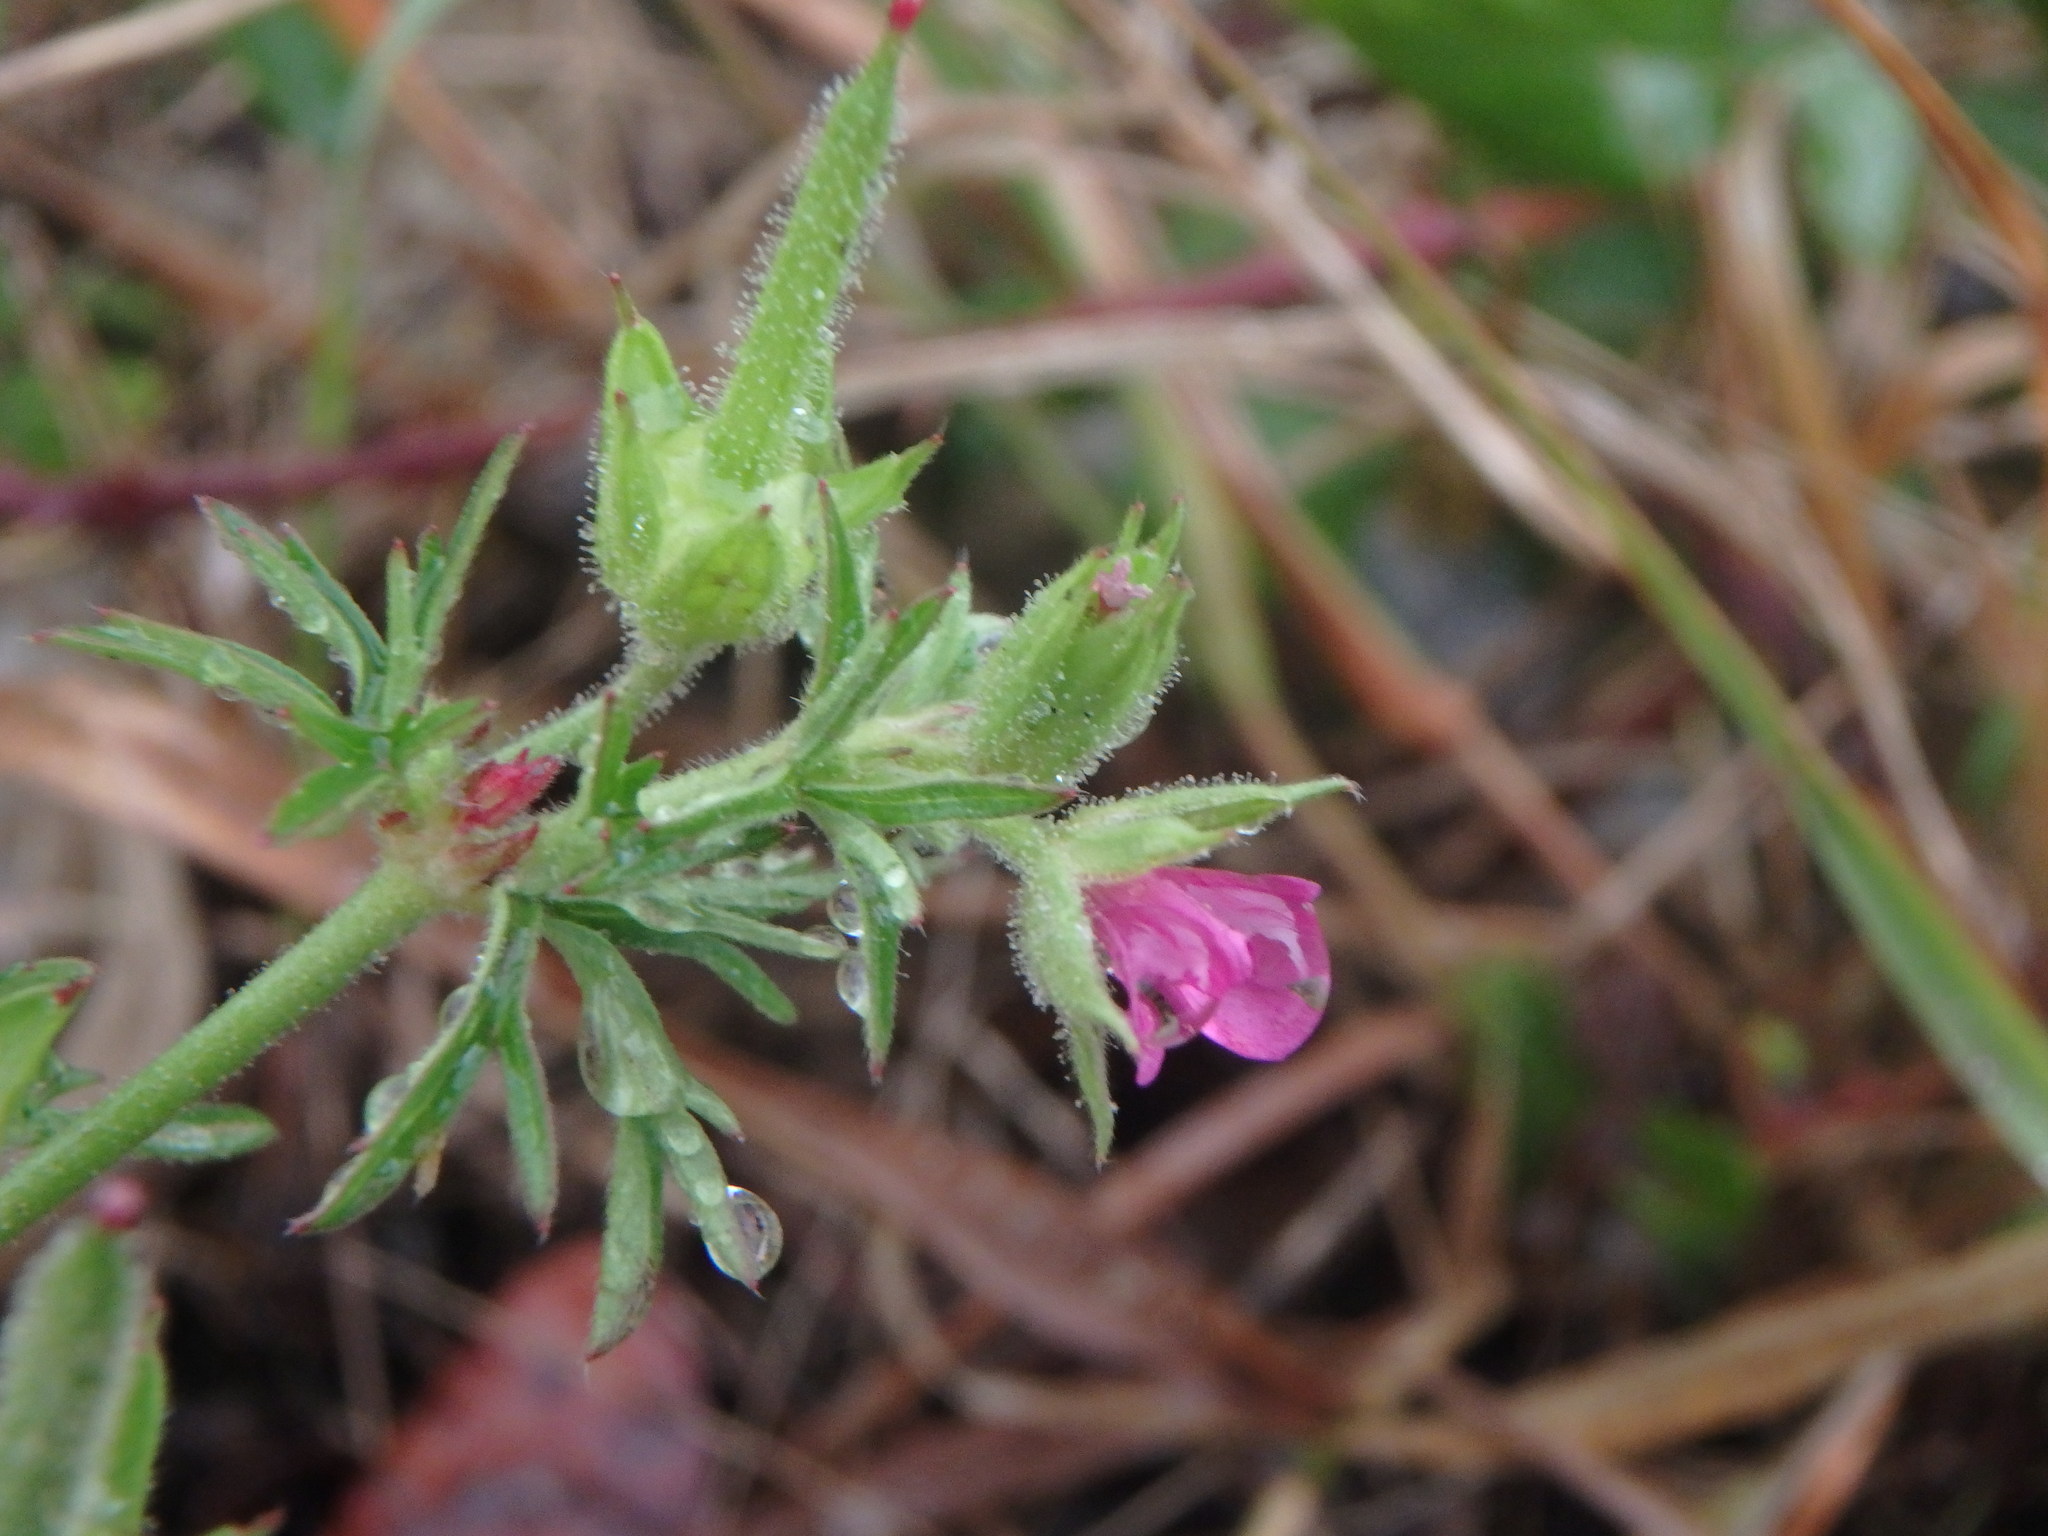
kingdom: Plantae
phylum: Tracheophyta
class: Magnoliopsida
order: Geraniales
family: Geraniaceae
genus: Geranium
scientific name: Geranium dissectum
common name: Cut-leaved crane's-bill
